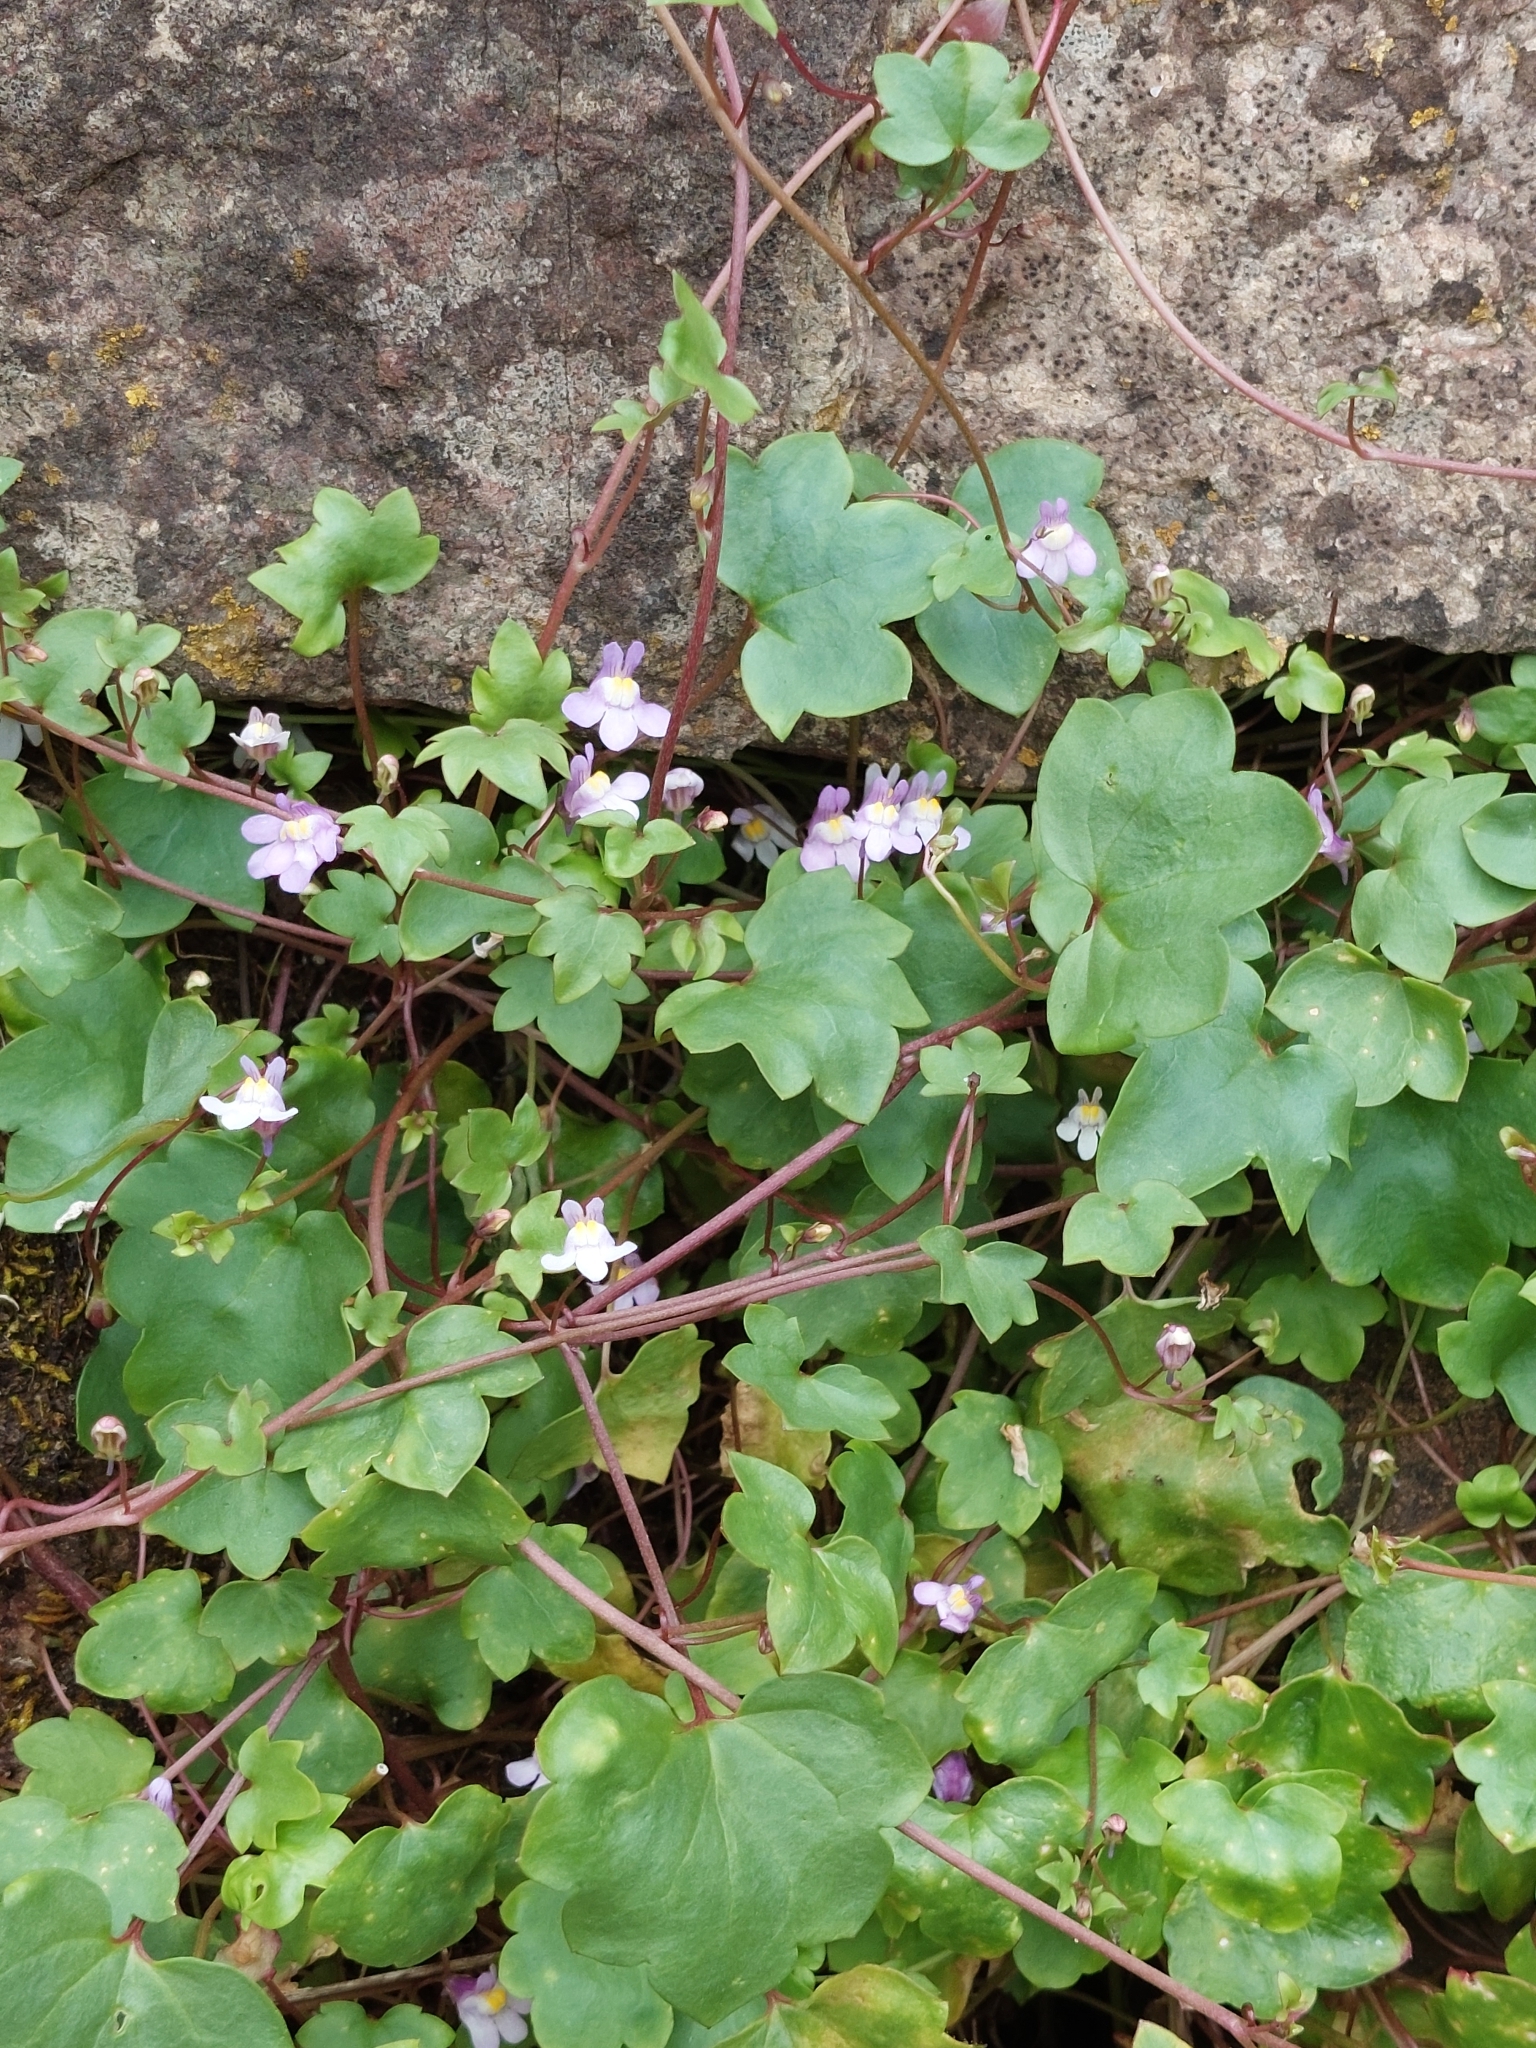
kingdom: Plantae
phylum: Tracheophyta
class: Magnoliopsida
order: Lamiales
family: Plantaginaceae
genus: Cymbalaria
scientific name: Cymbalaria muralis
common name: Ivy-leaved toadflax
